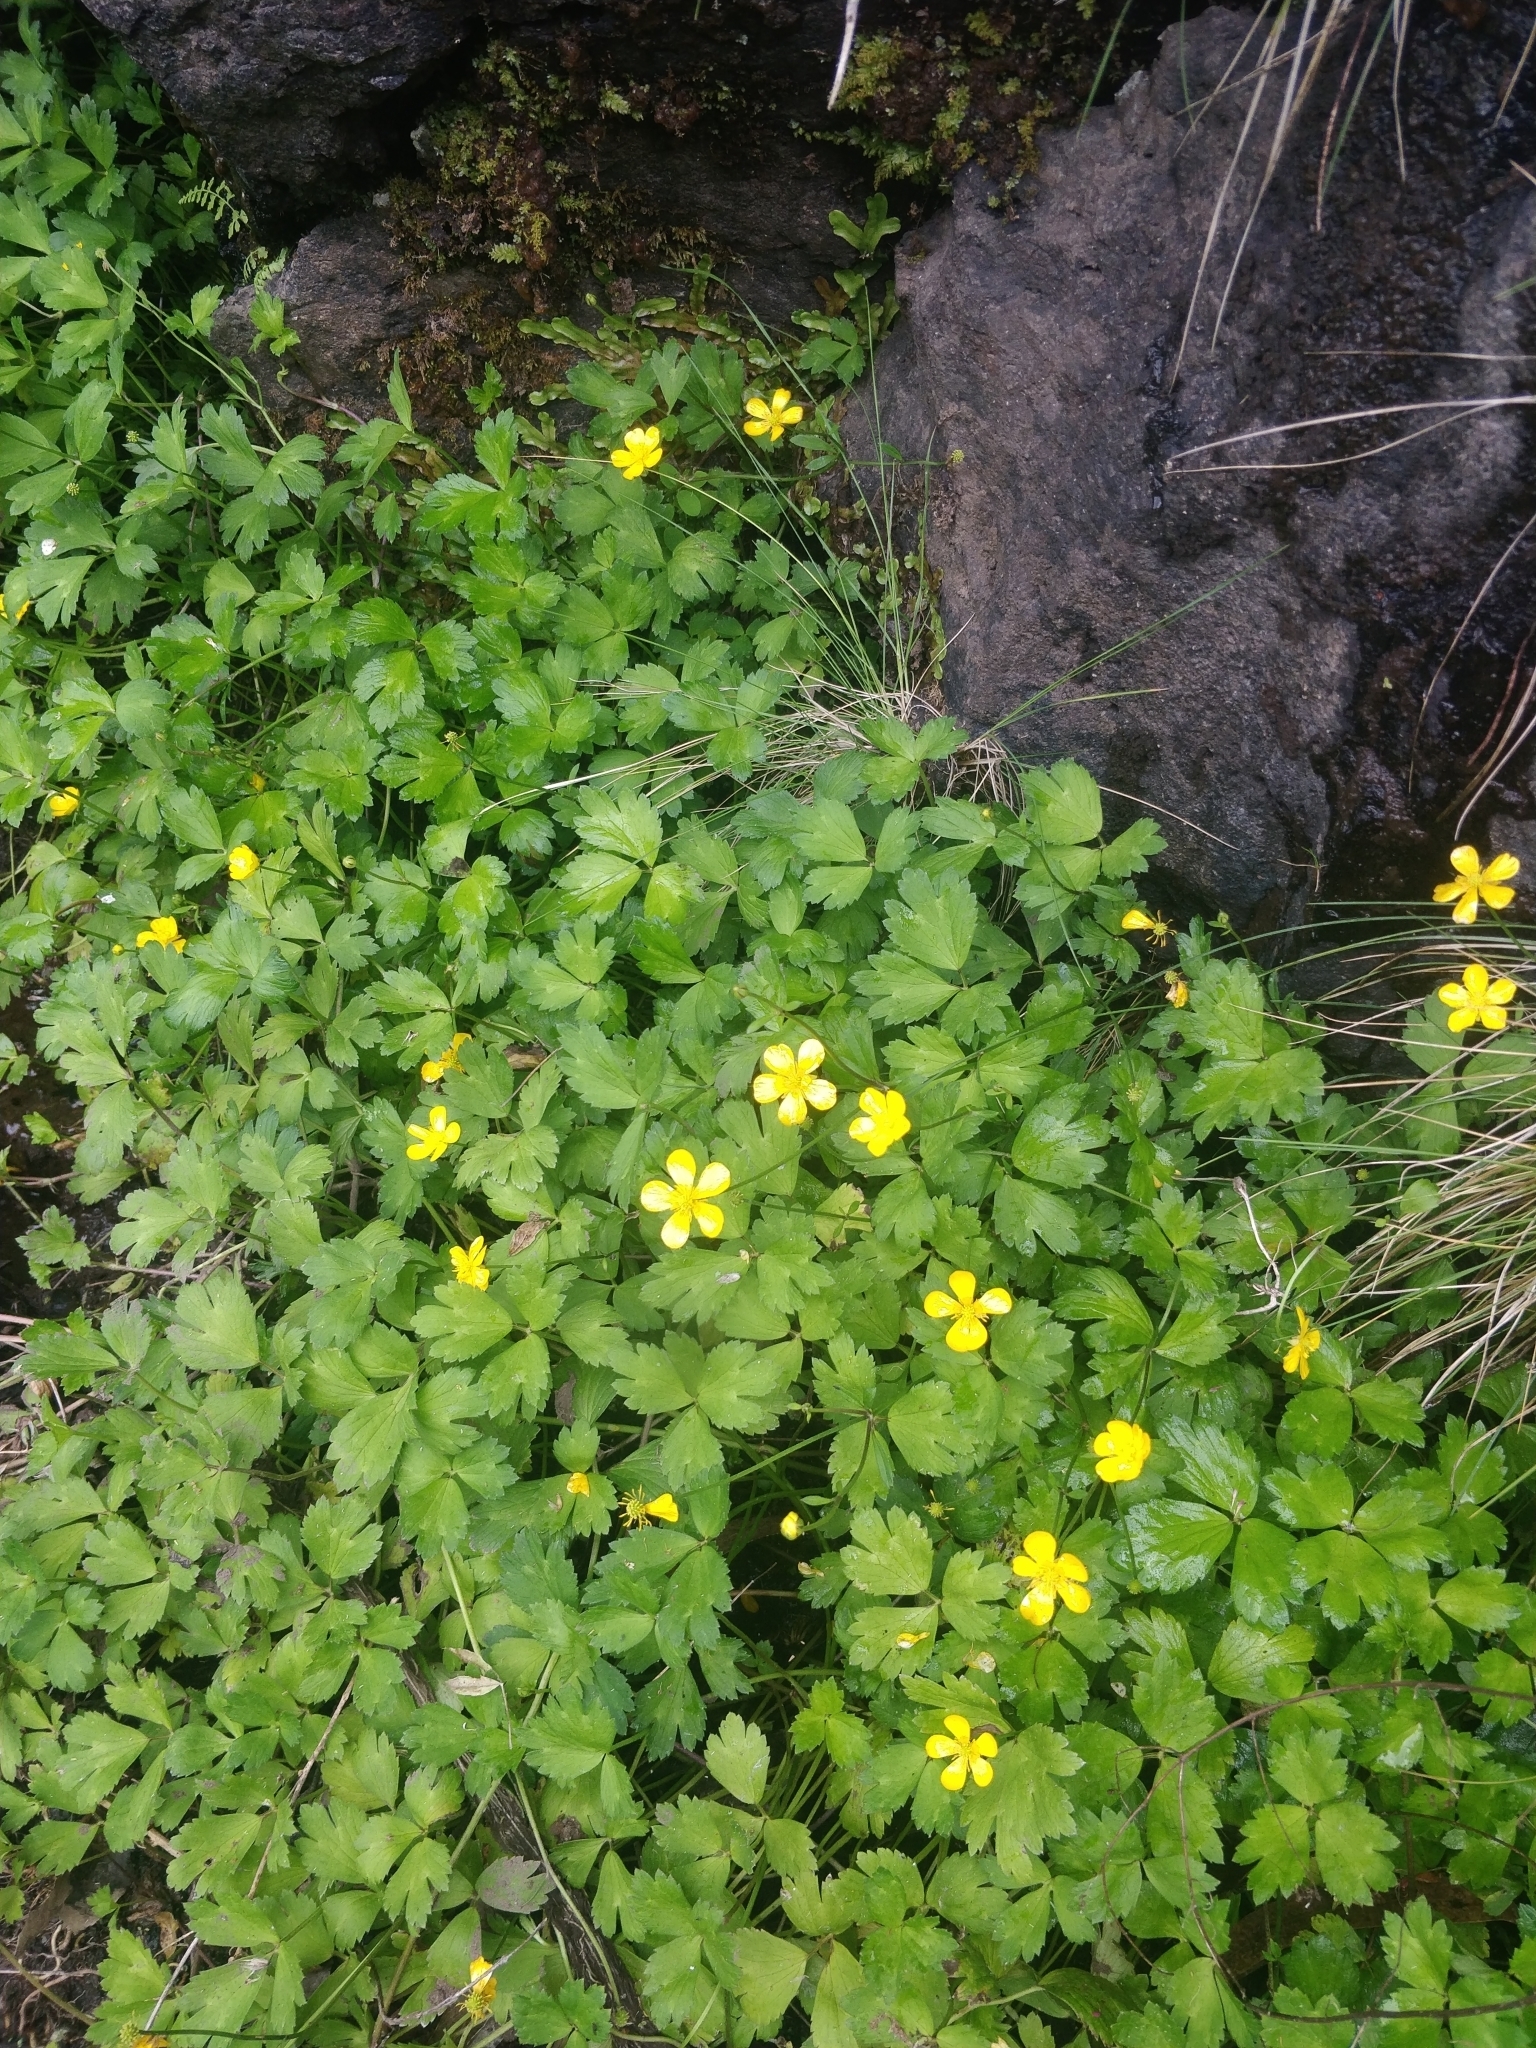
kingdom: Plantae
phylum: Tracheophyta
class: Magnoliopsida
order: Ranunculales
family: Ranunculaceae
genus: Ranunculus
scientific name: Ranunculus repens
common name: Creeping buttercup
